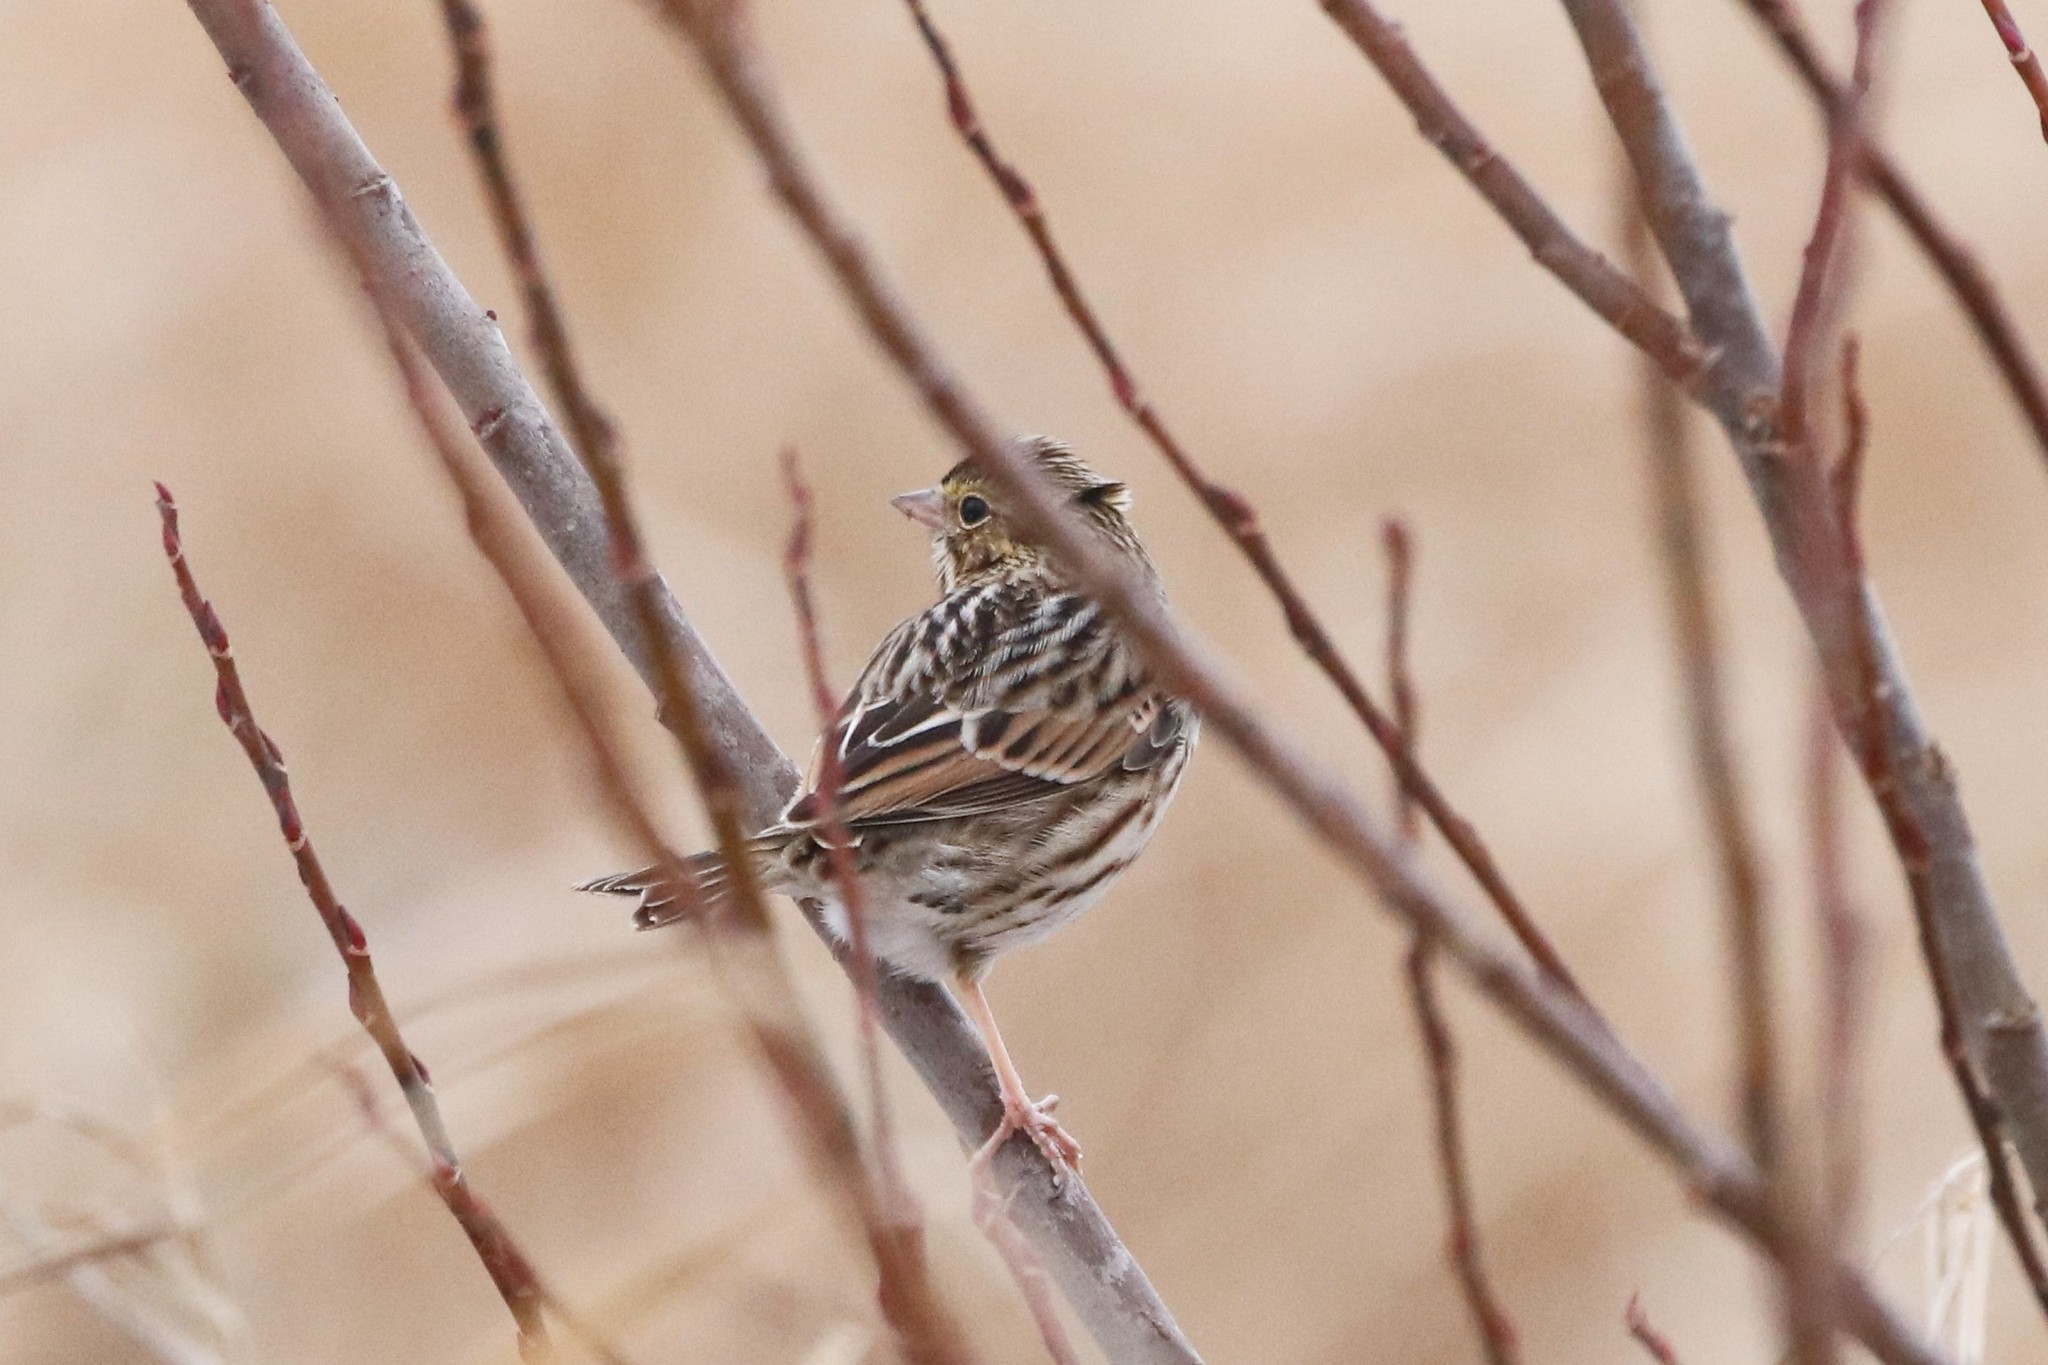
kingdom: Animalia
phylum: Chordata
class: Aves
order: Passeriformes
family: Passerellidae
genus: Passerculus
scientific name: Passerculus sandwichensis
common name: Savannah sparrow
